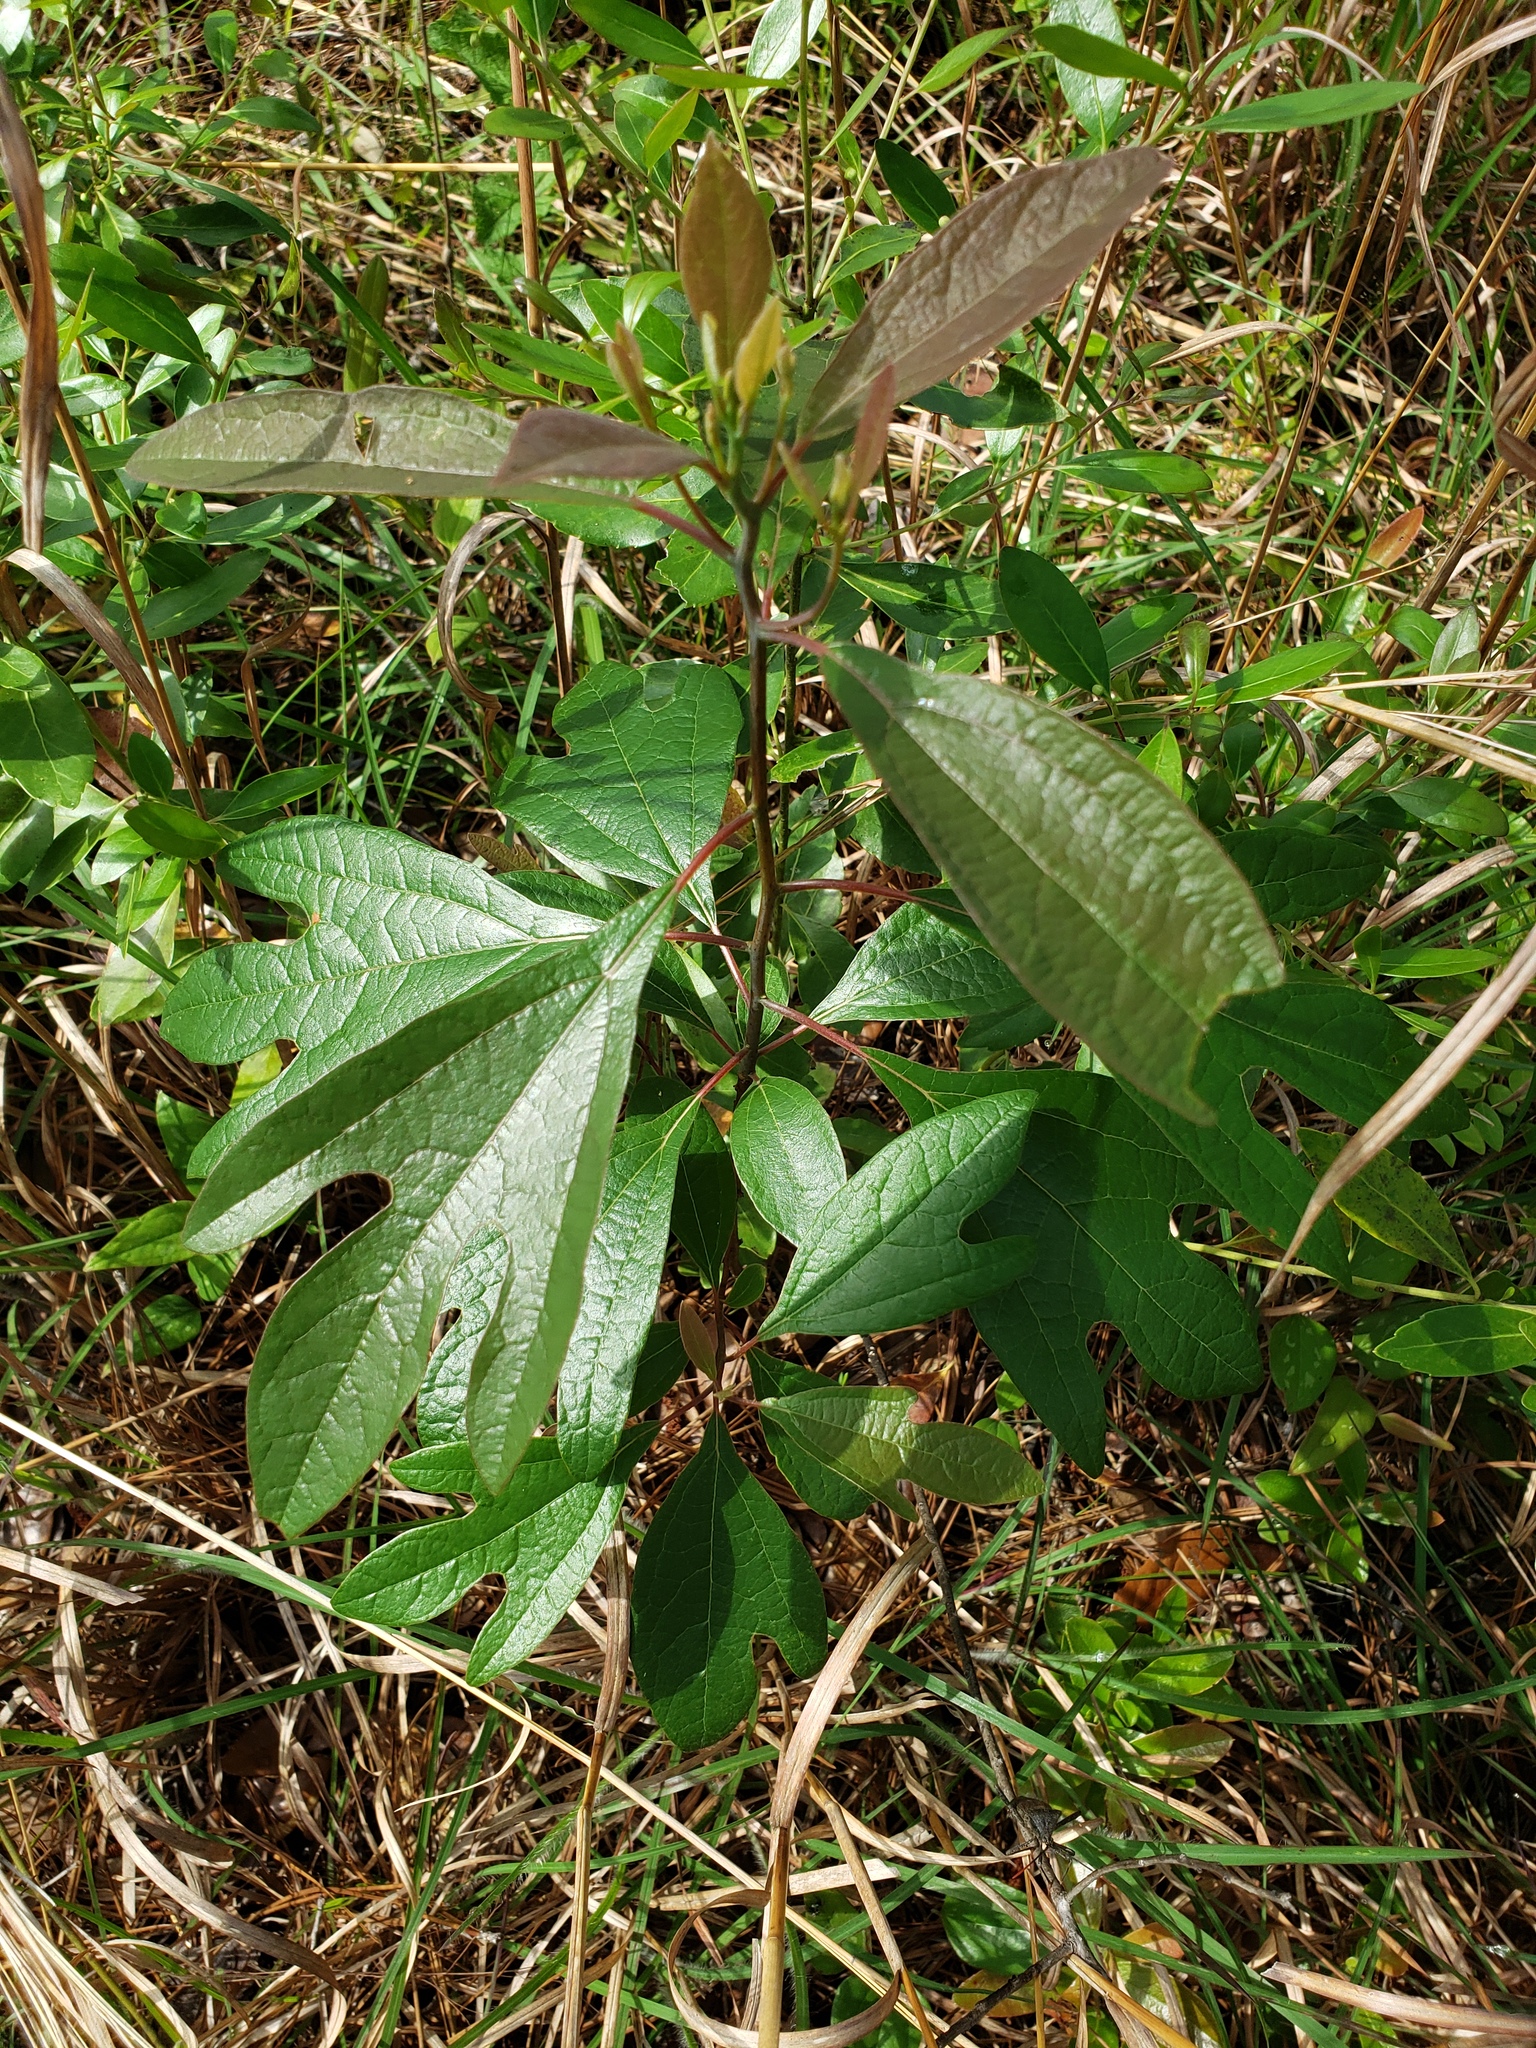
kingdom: Plantae
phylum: Tracheophyta
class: Magnoliopsida
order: Laurales
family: Lauraceae
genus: Sassafras
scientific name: Sassafras albidum
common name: Sassafras
